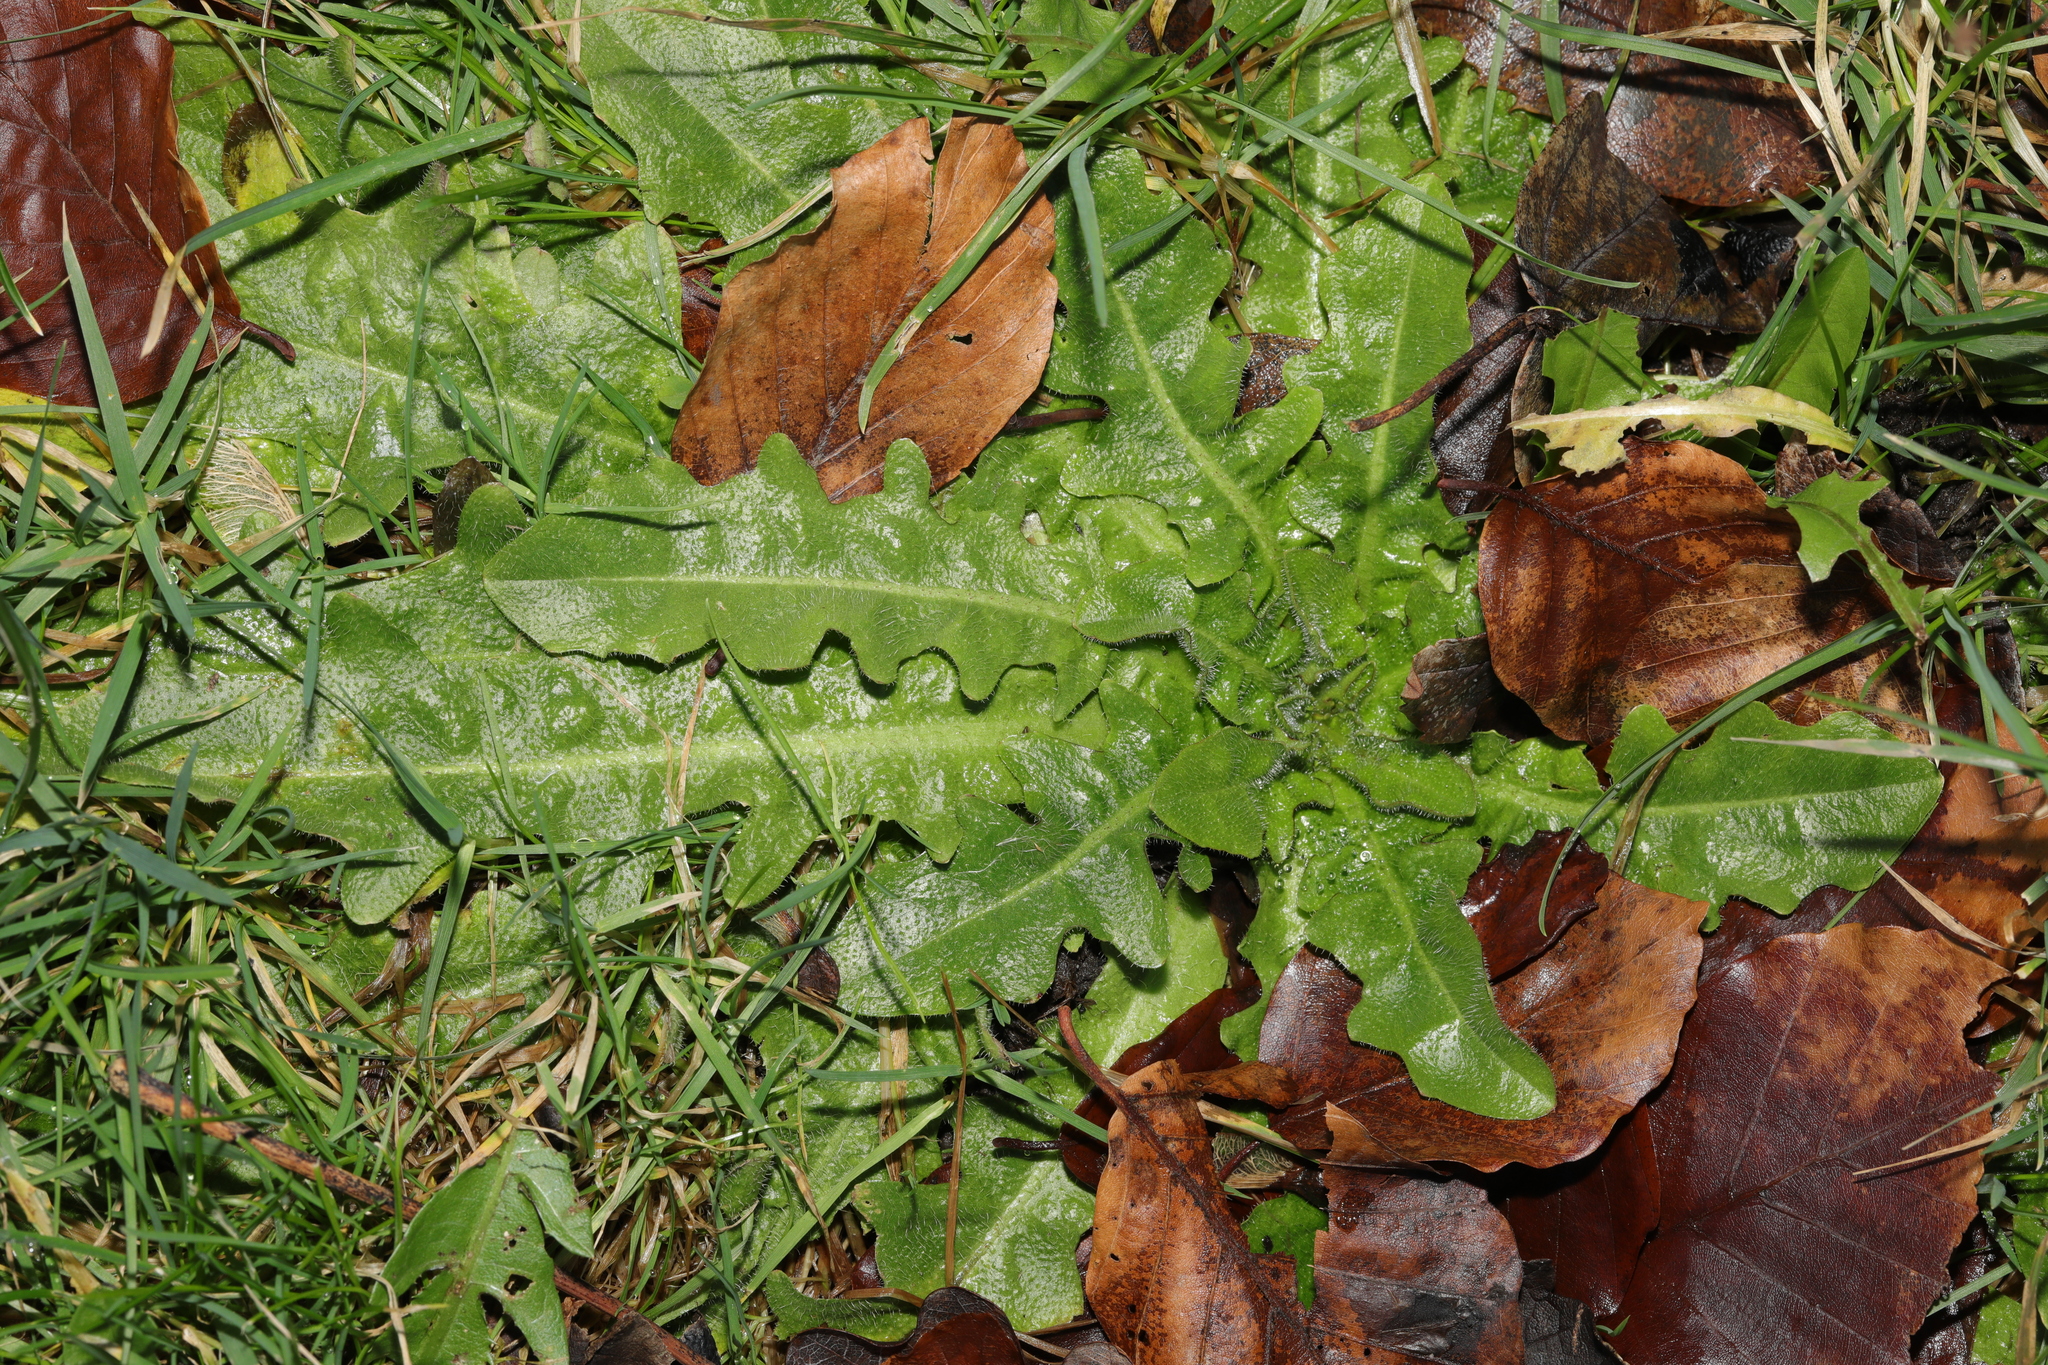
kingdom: Plantae
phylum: Tracheophyta
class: Magnoliopsida
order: Asterales
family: Asteraceae
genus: Hypochaeris
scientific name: Hypochaeris radicata
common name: Flatweed
